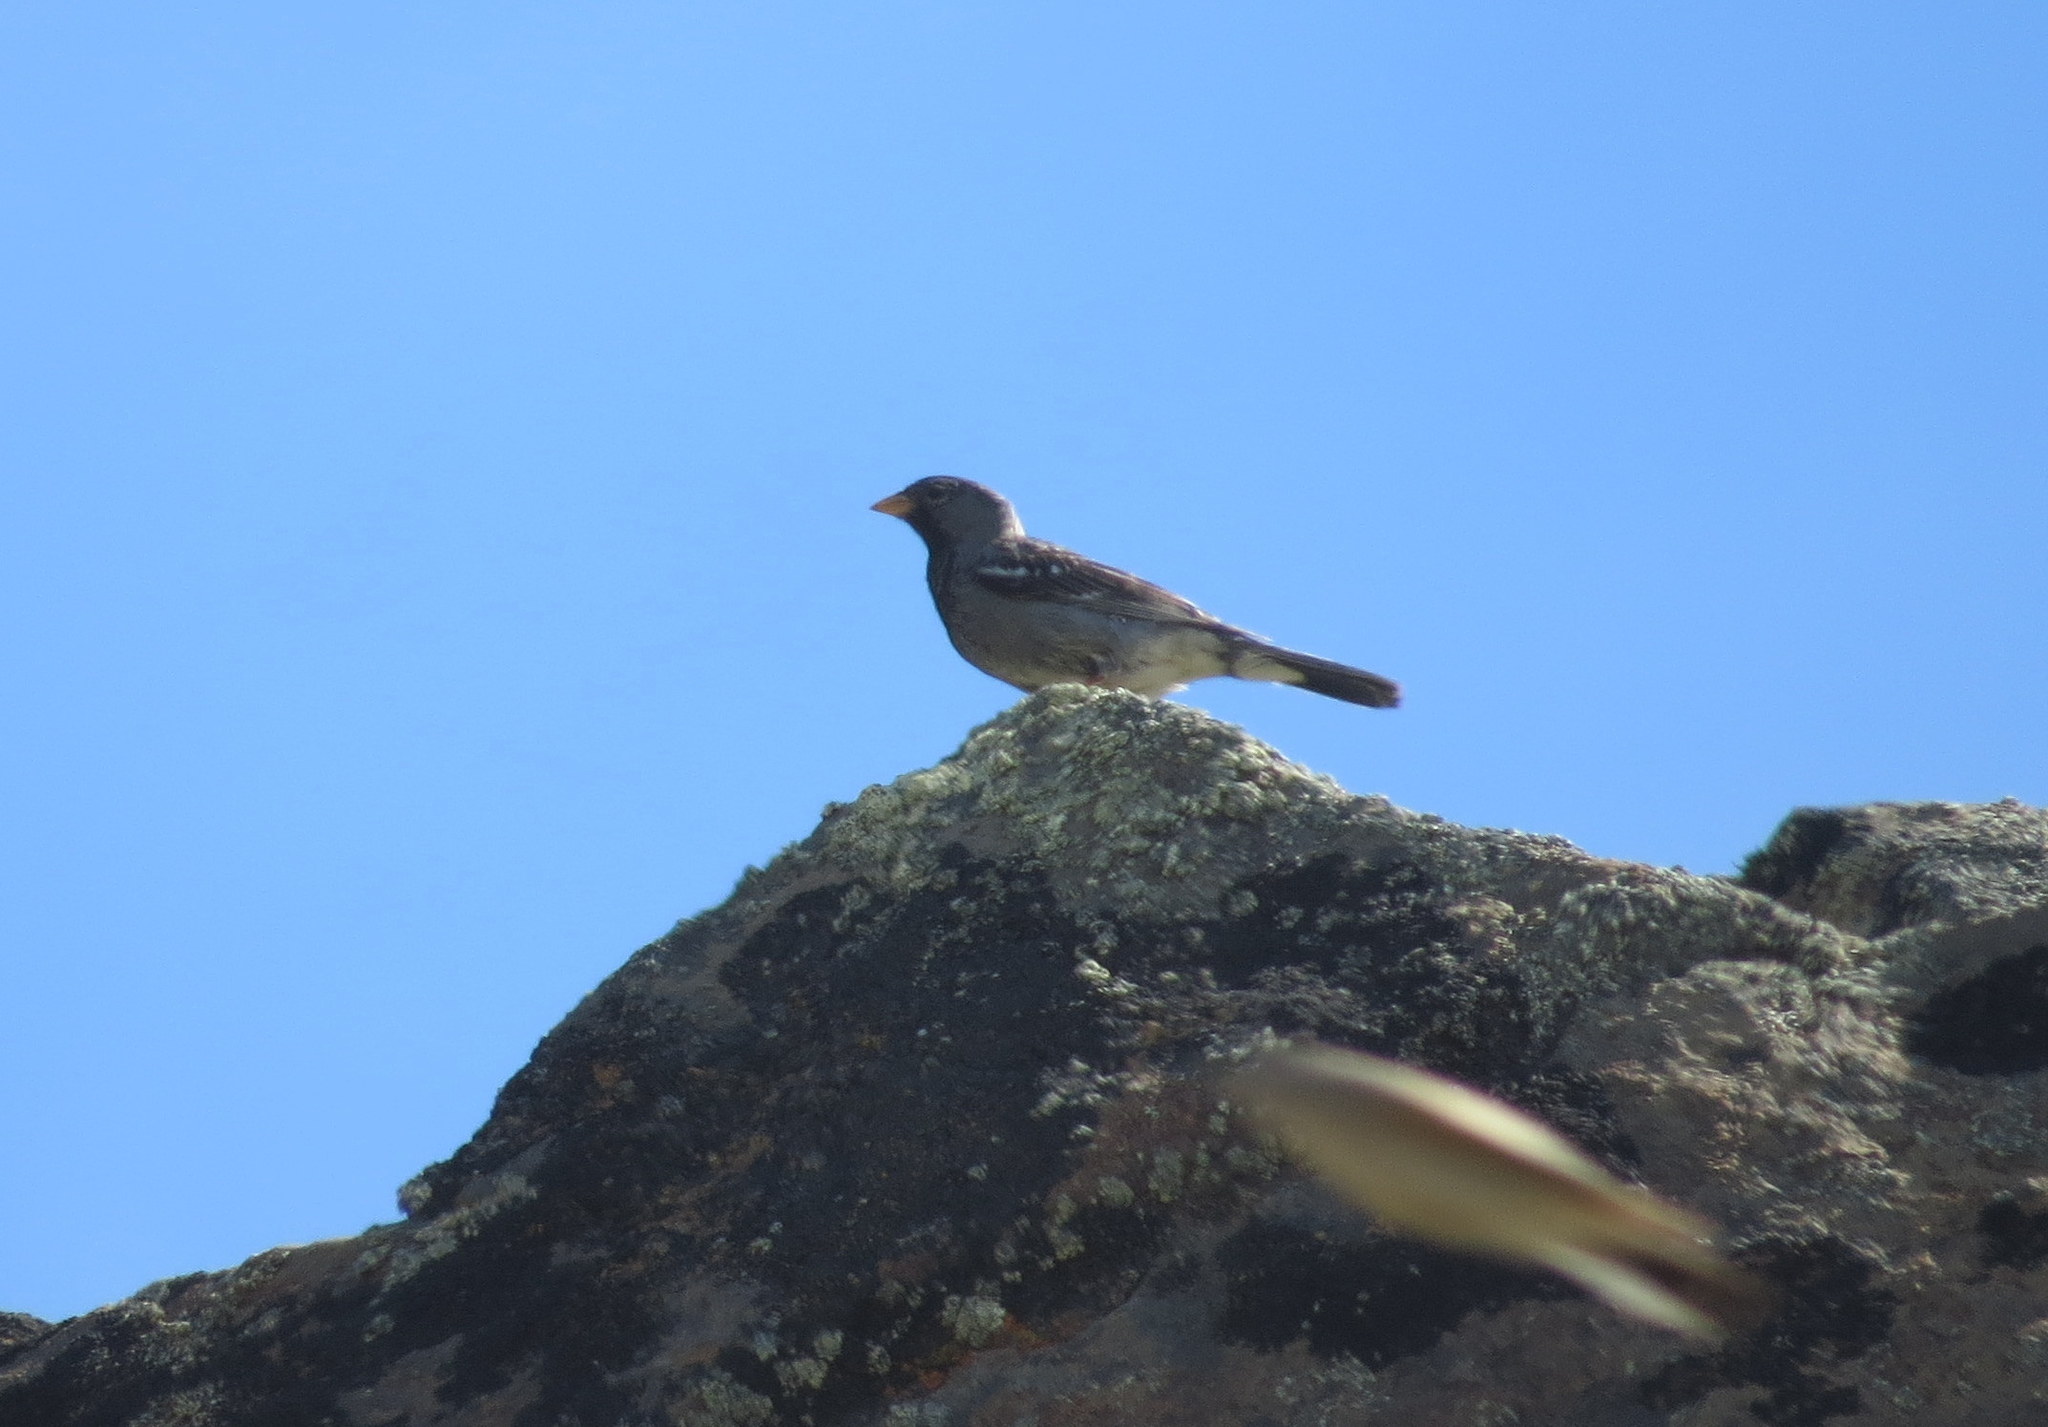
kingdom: Animalia
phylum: Chordata
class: Aves
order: Passeriformes
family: Thraupidae
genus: Rhopospina
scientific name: Rhopospina fruticeti
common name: Mourning sierra finch
